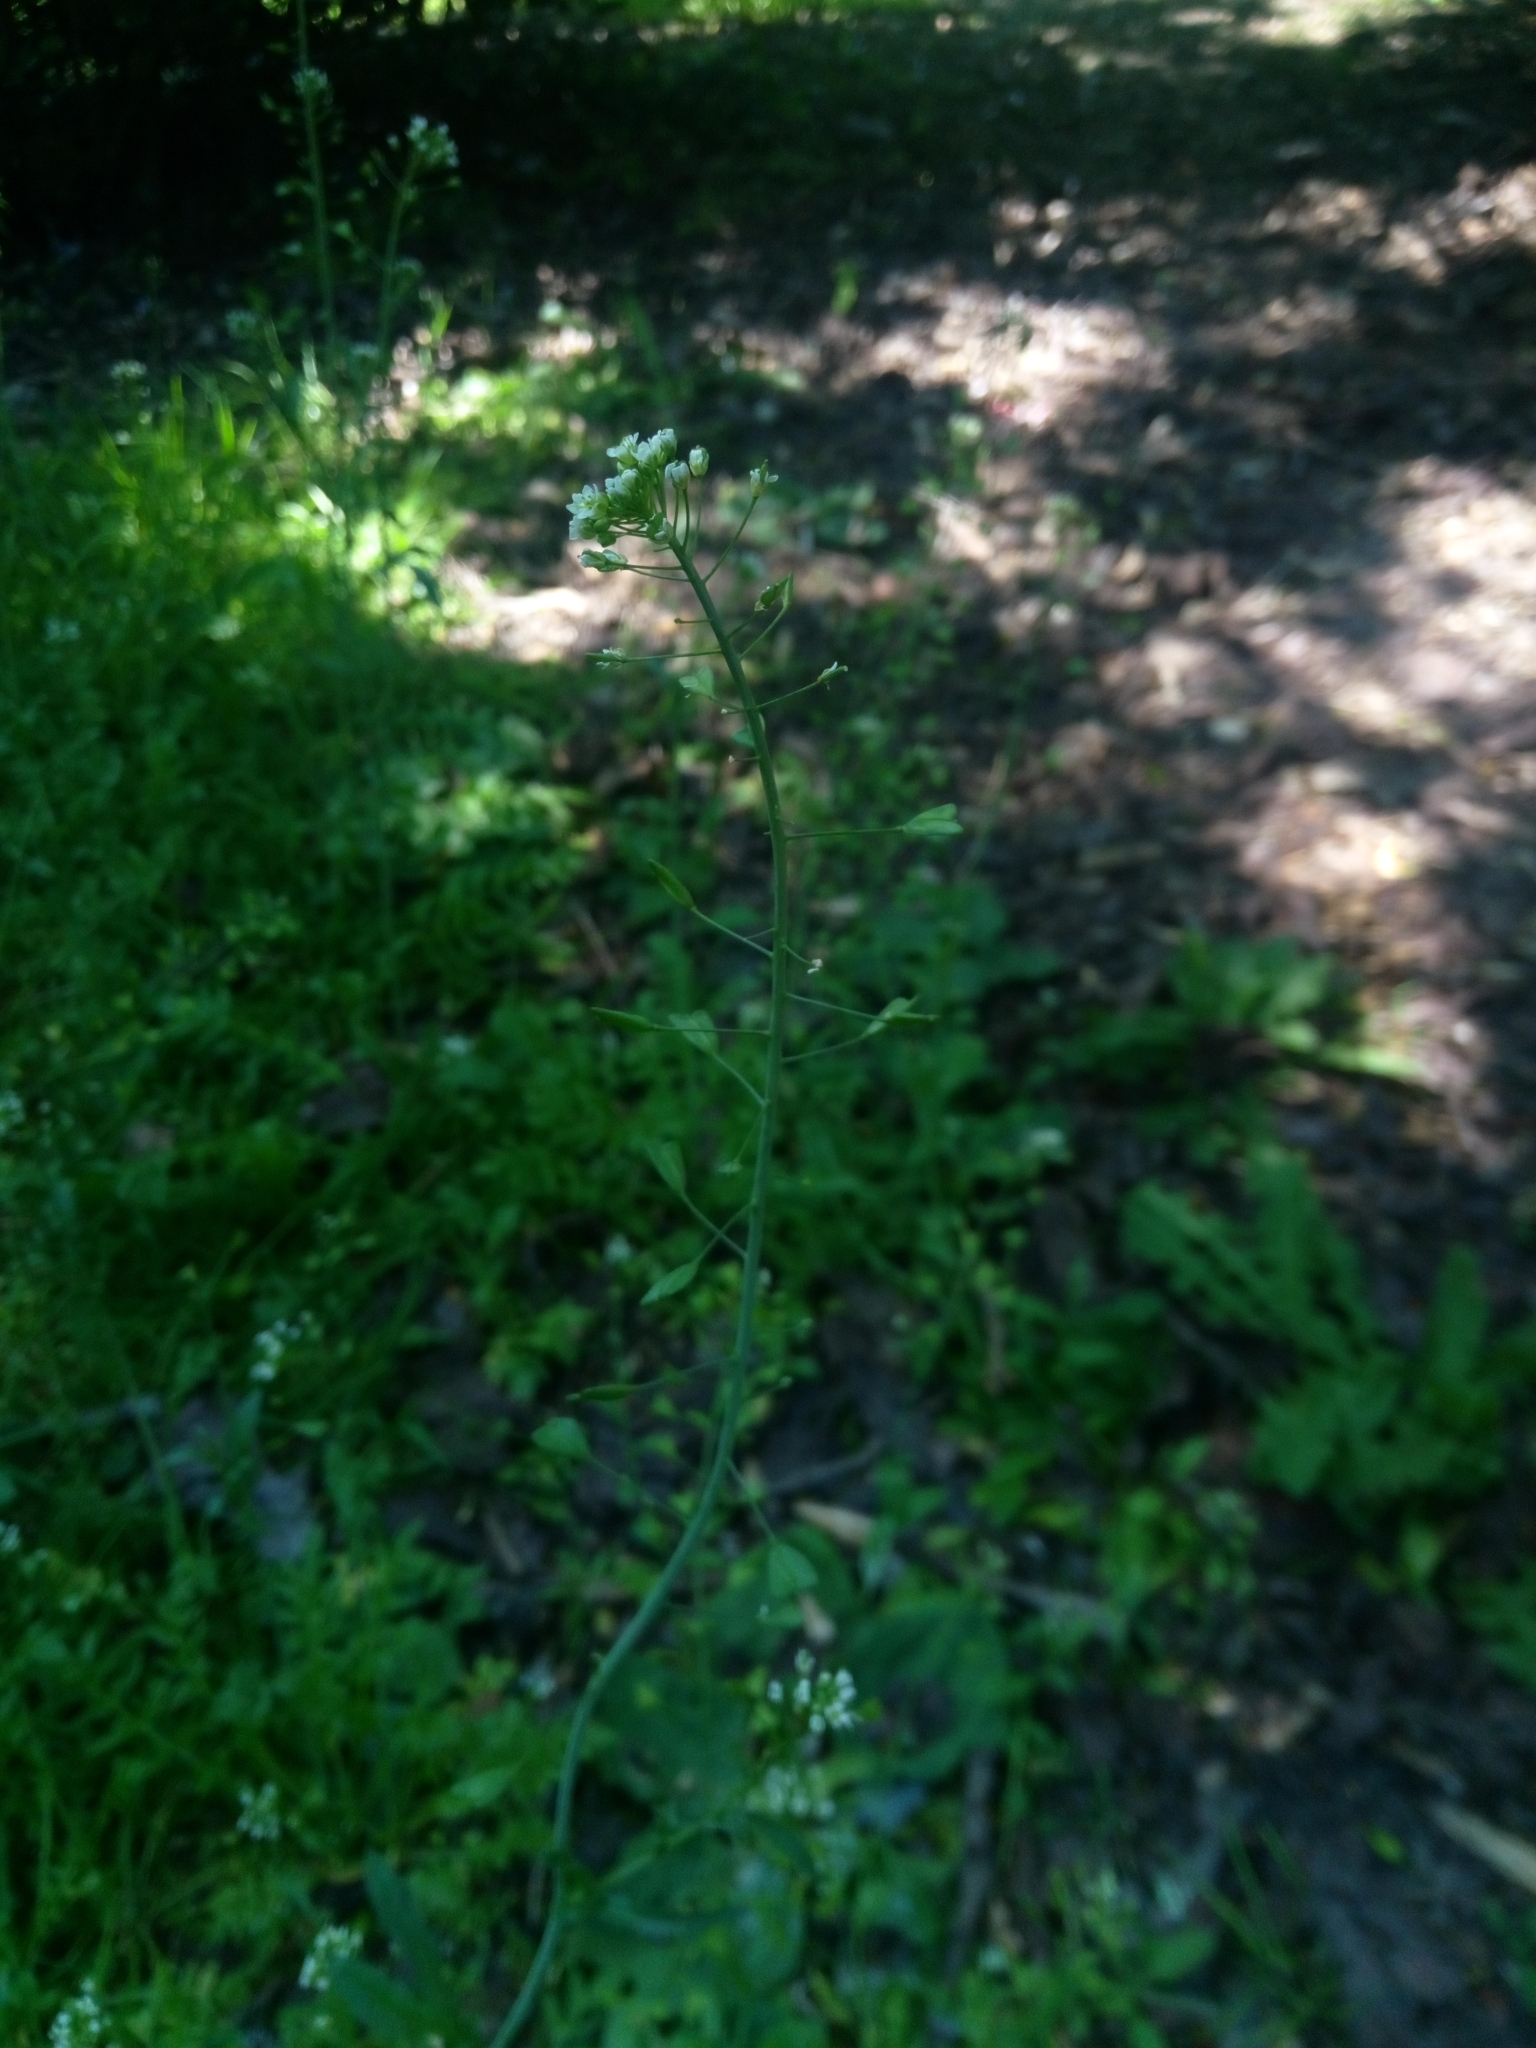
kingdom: Plantae
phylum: Tracheophyta
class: Magnoliopsida
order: Brassicales
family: Brassicaceae
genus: Capsella
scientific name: Capsella bursa-pastoris
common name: Shepherd's purse
